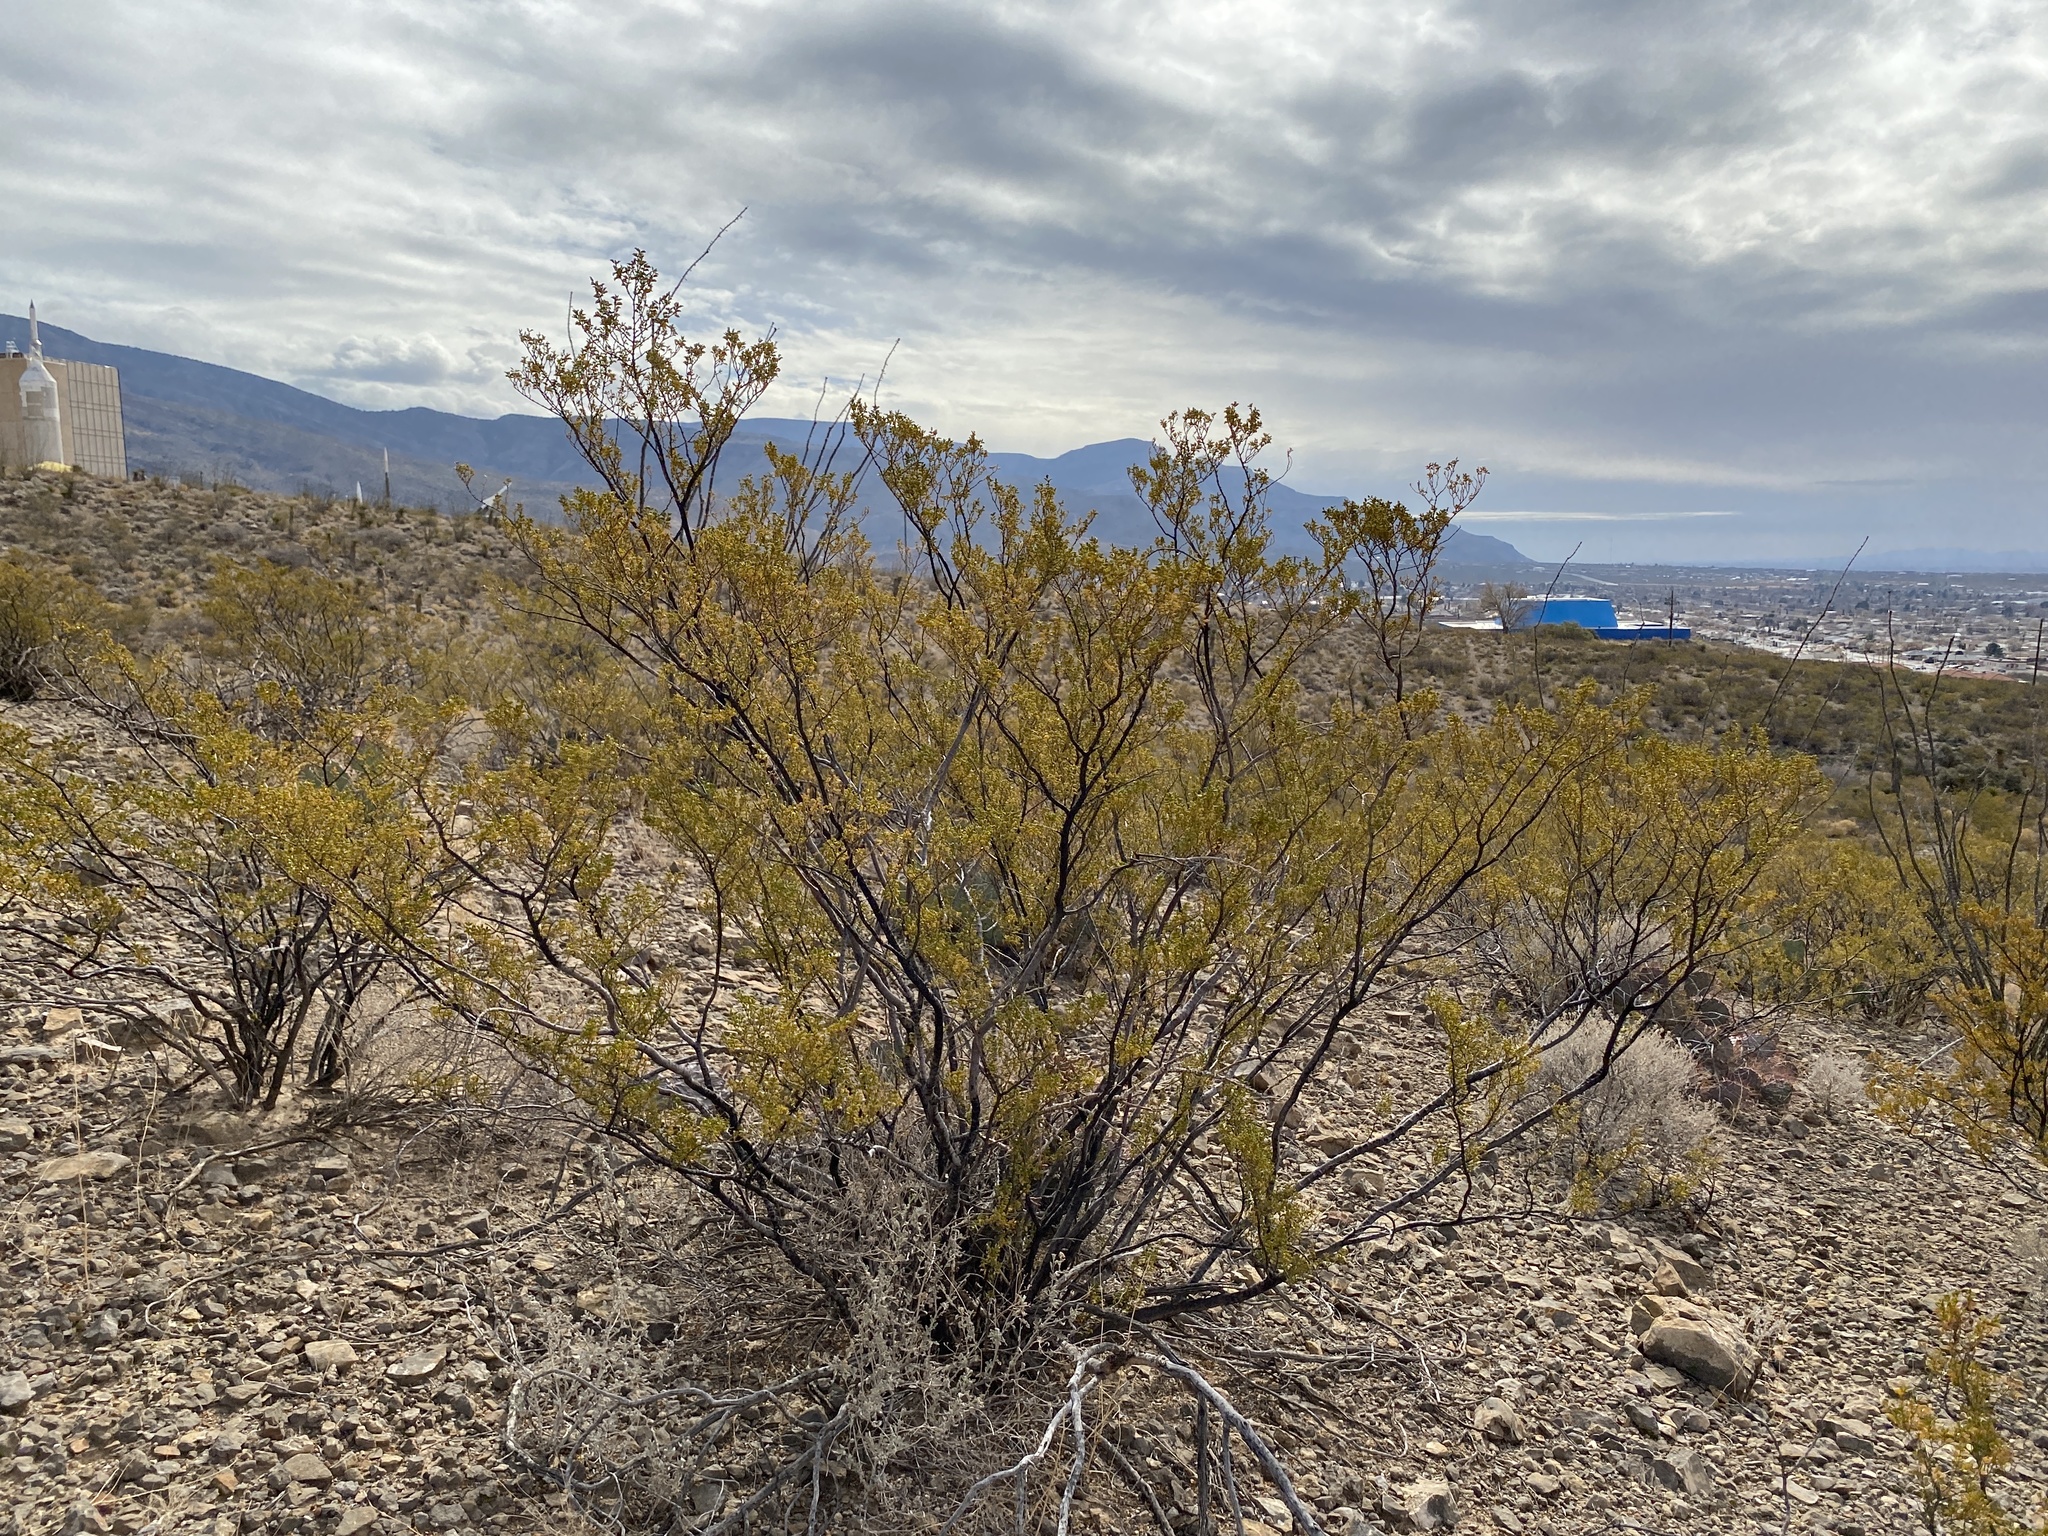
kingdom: Plantae
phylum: Tracheophyta
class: Magnoliopsida
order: Zygophyllales
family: Zygophyllaceae
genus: Larrea
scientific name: Larrea tridentata
